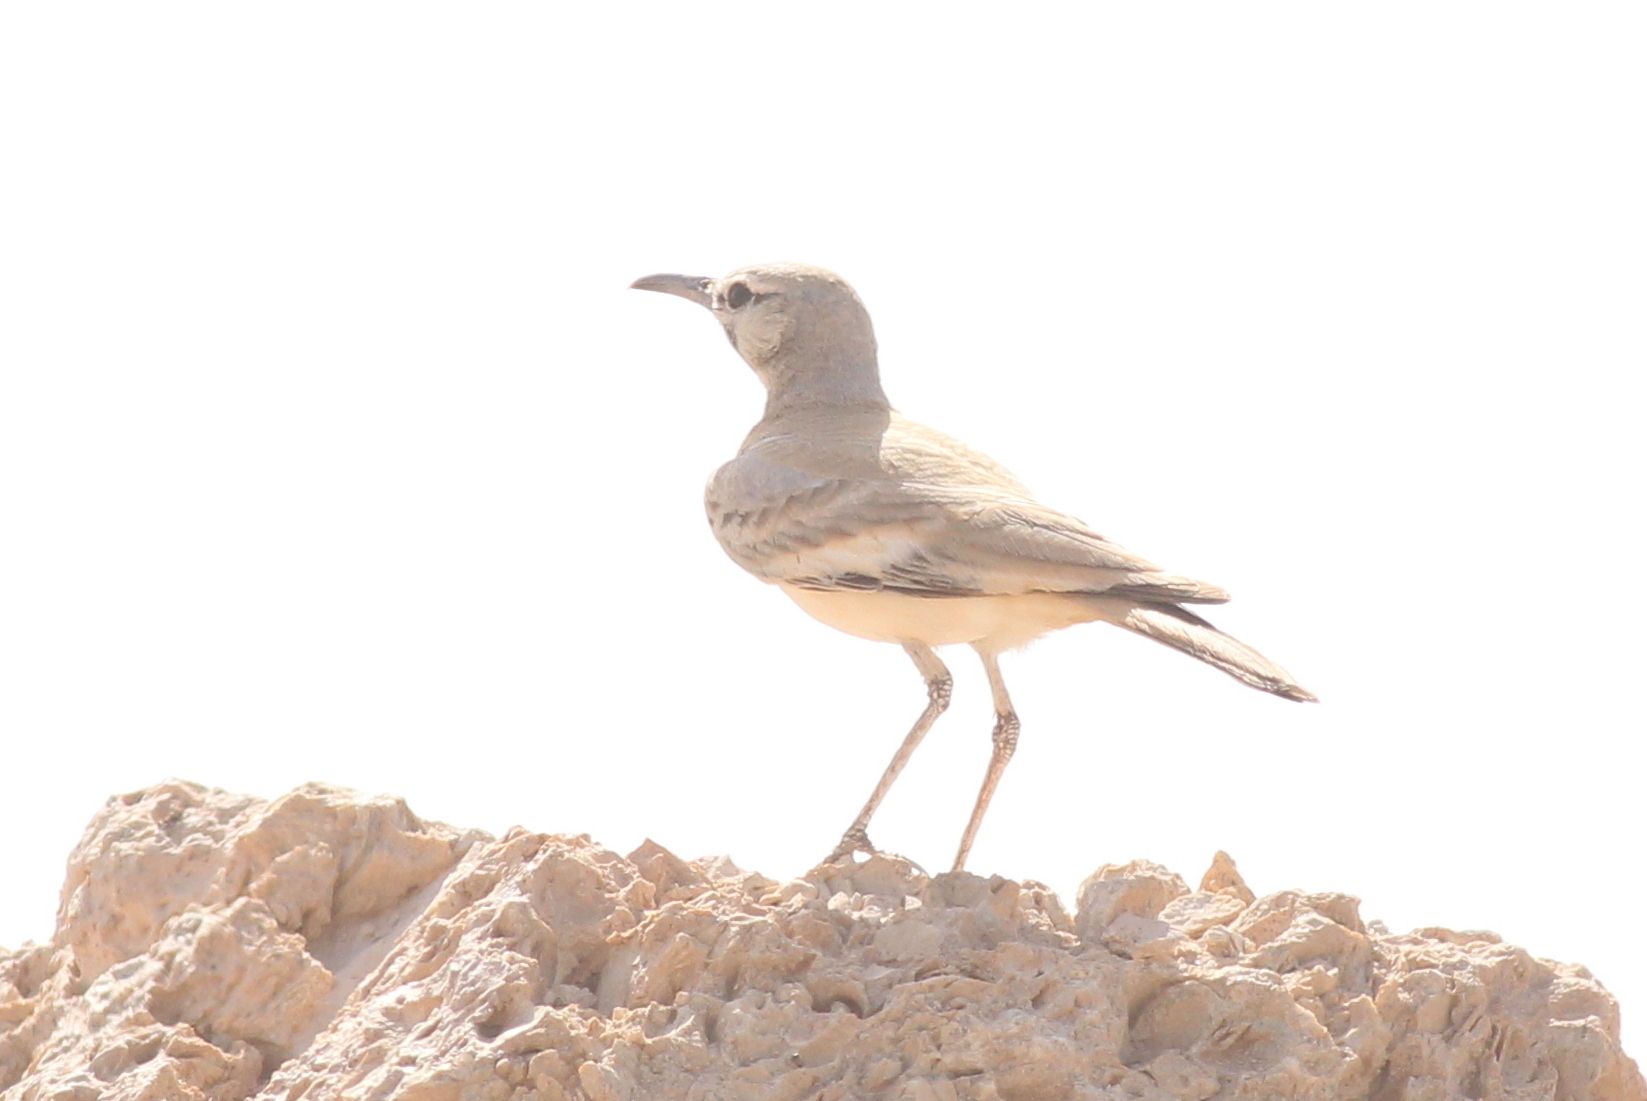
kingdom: Animalia
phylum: Chordata
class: Aves
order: Passeriformes
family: Alaudidae
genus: Alaemon
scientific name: Alaemon alaudipes
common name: Greater hoopoe-lark
